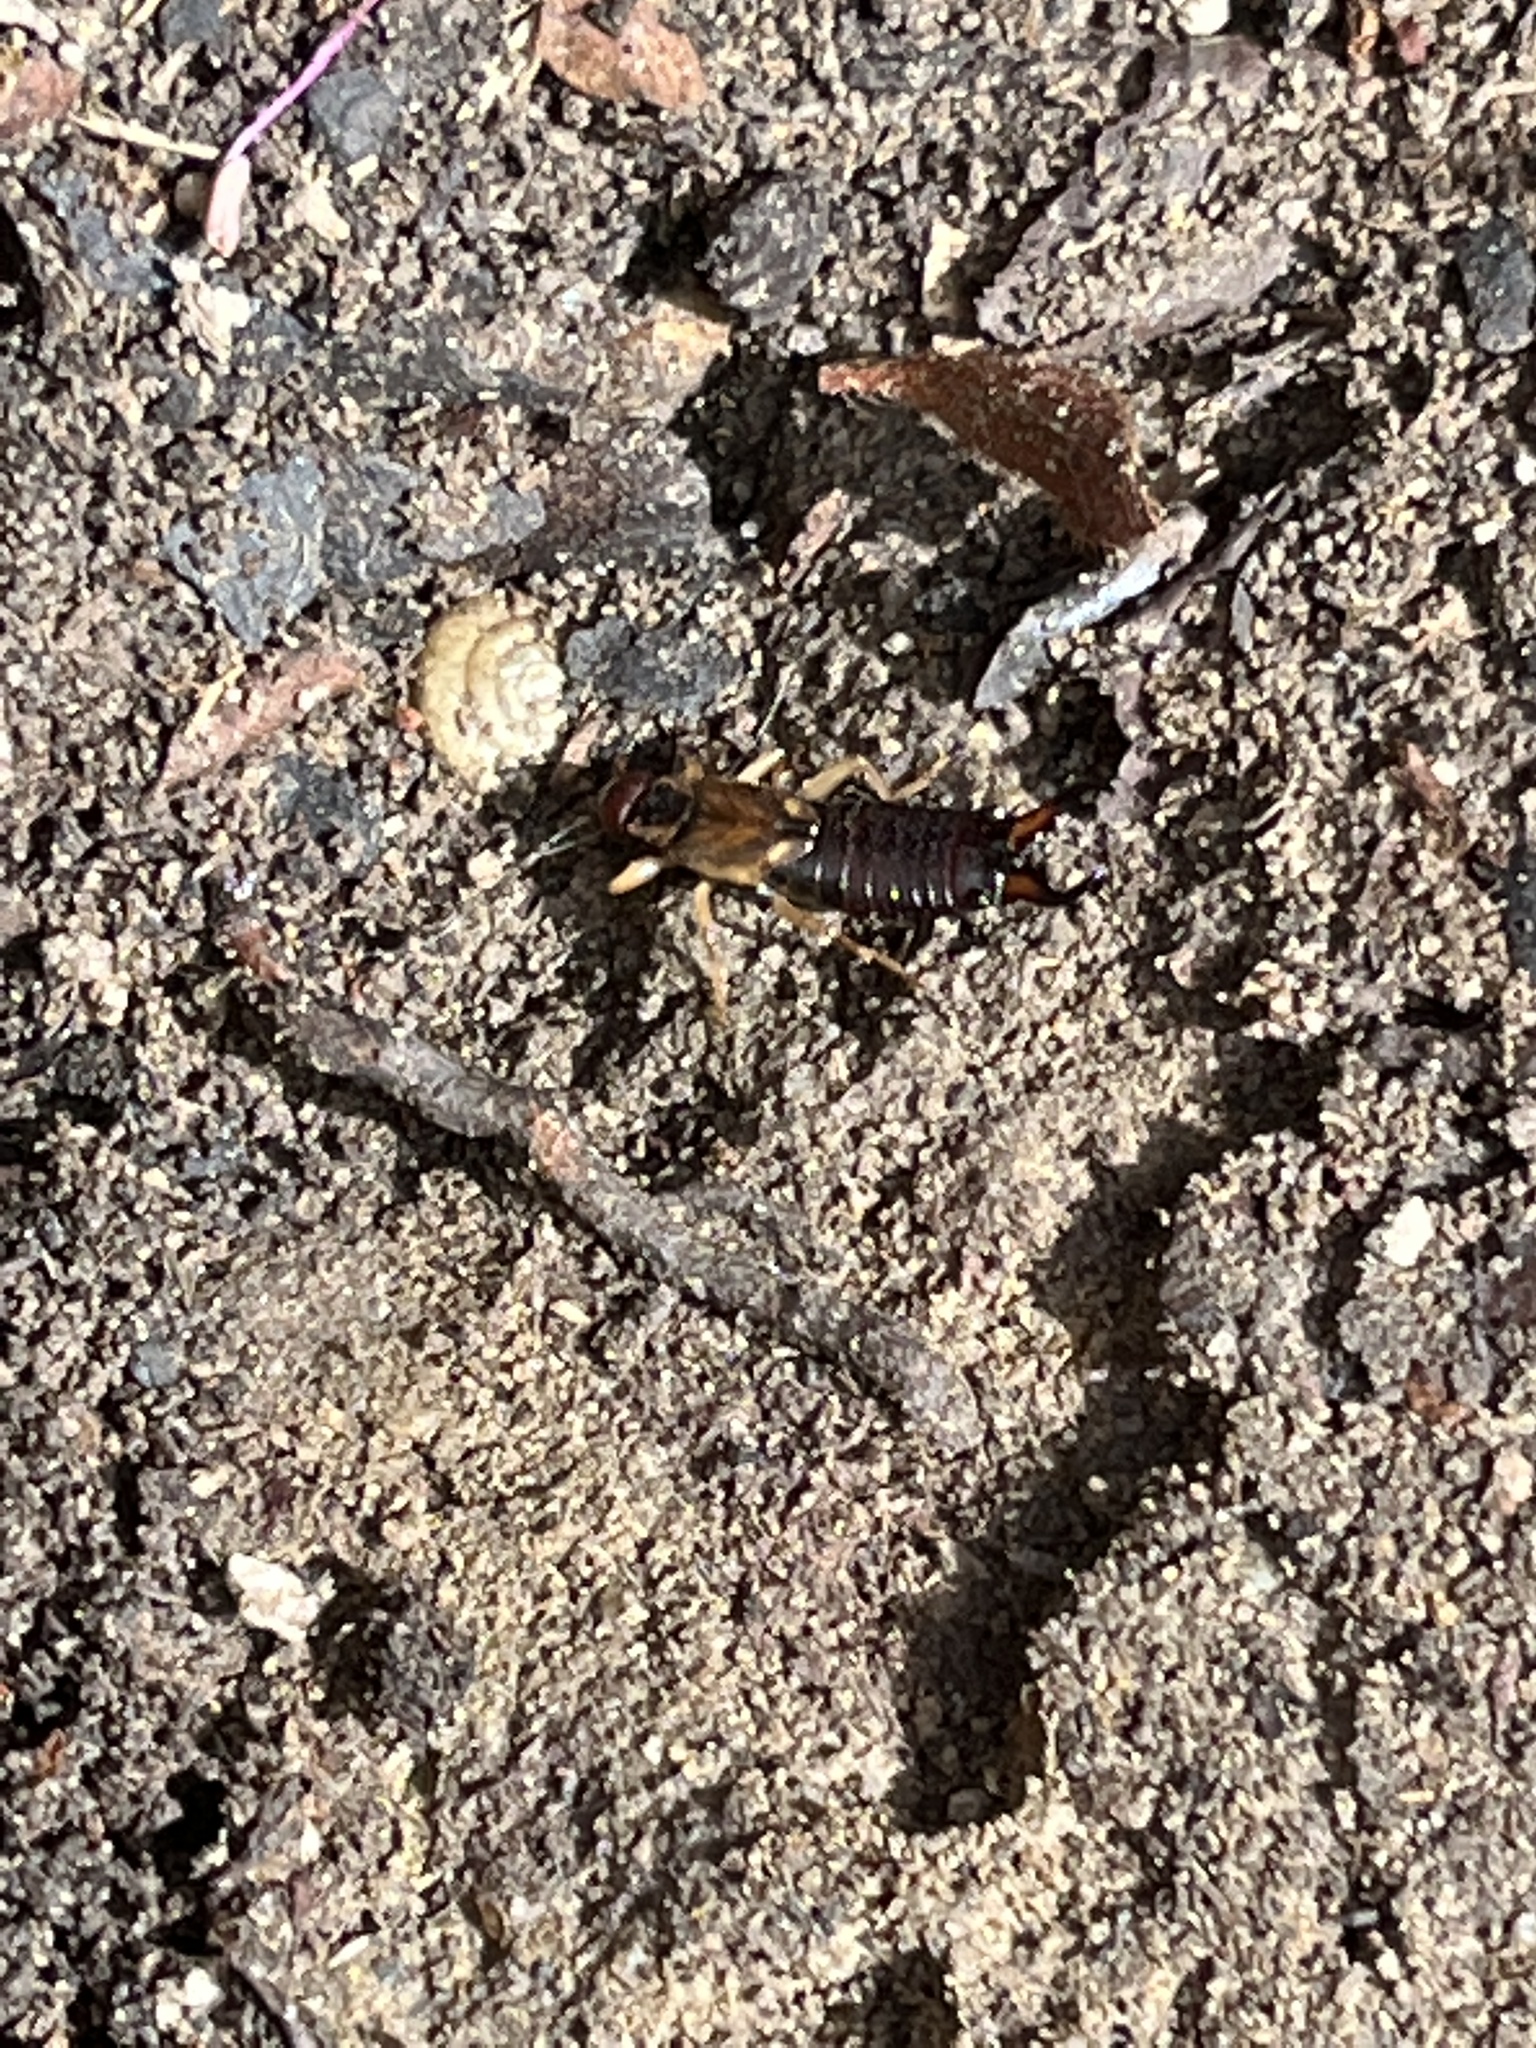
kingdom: Animalia
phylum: Arthropoda
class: Insecta
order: Dermaptera
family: Forficulidae
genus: Forficula
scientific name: Forficula
